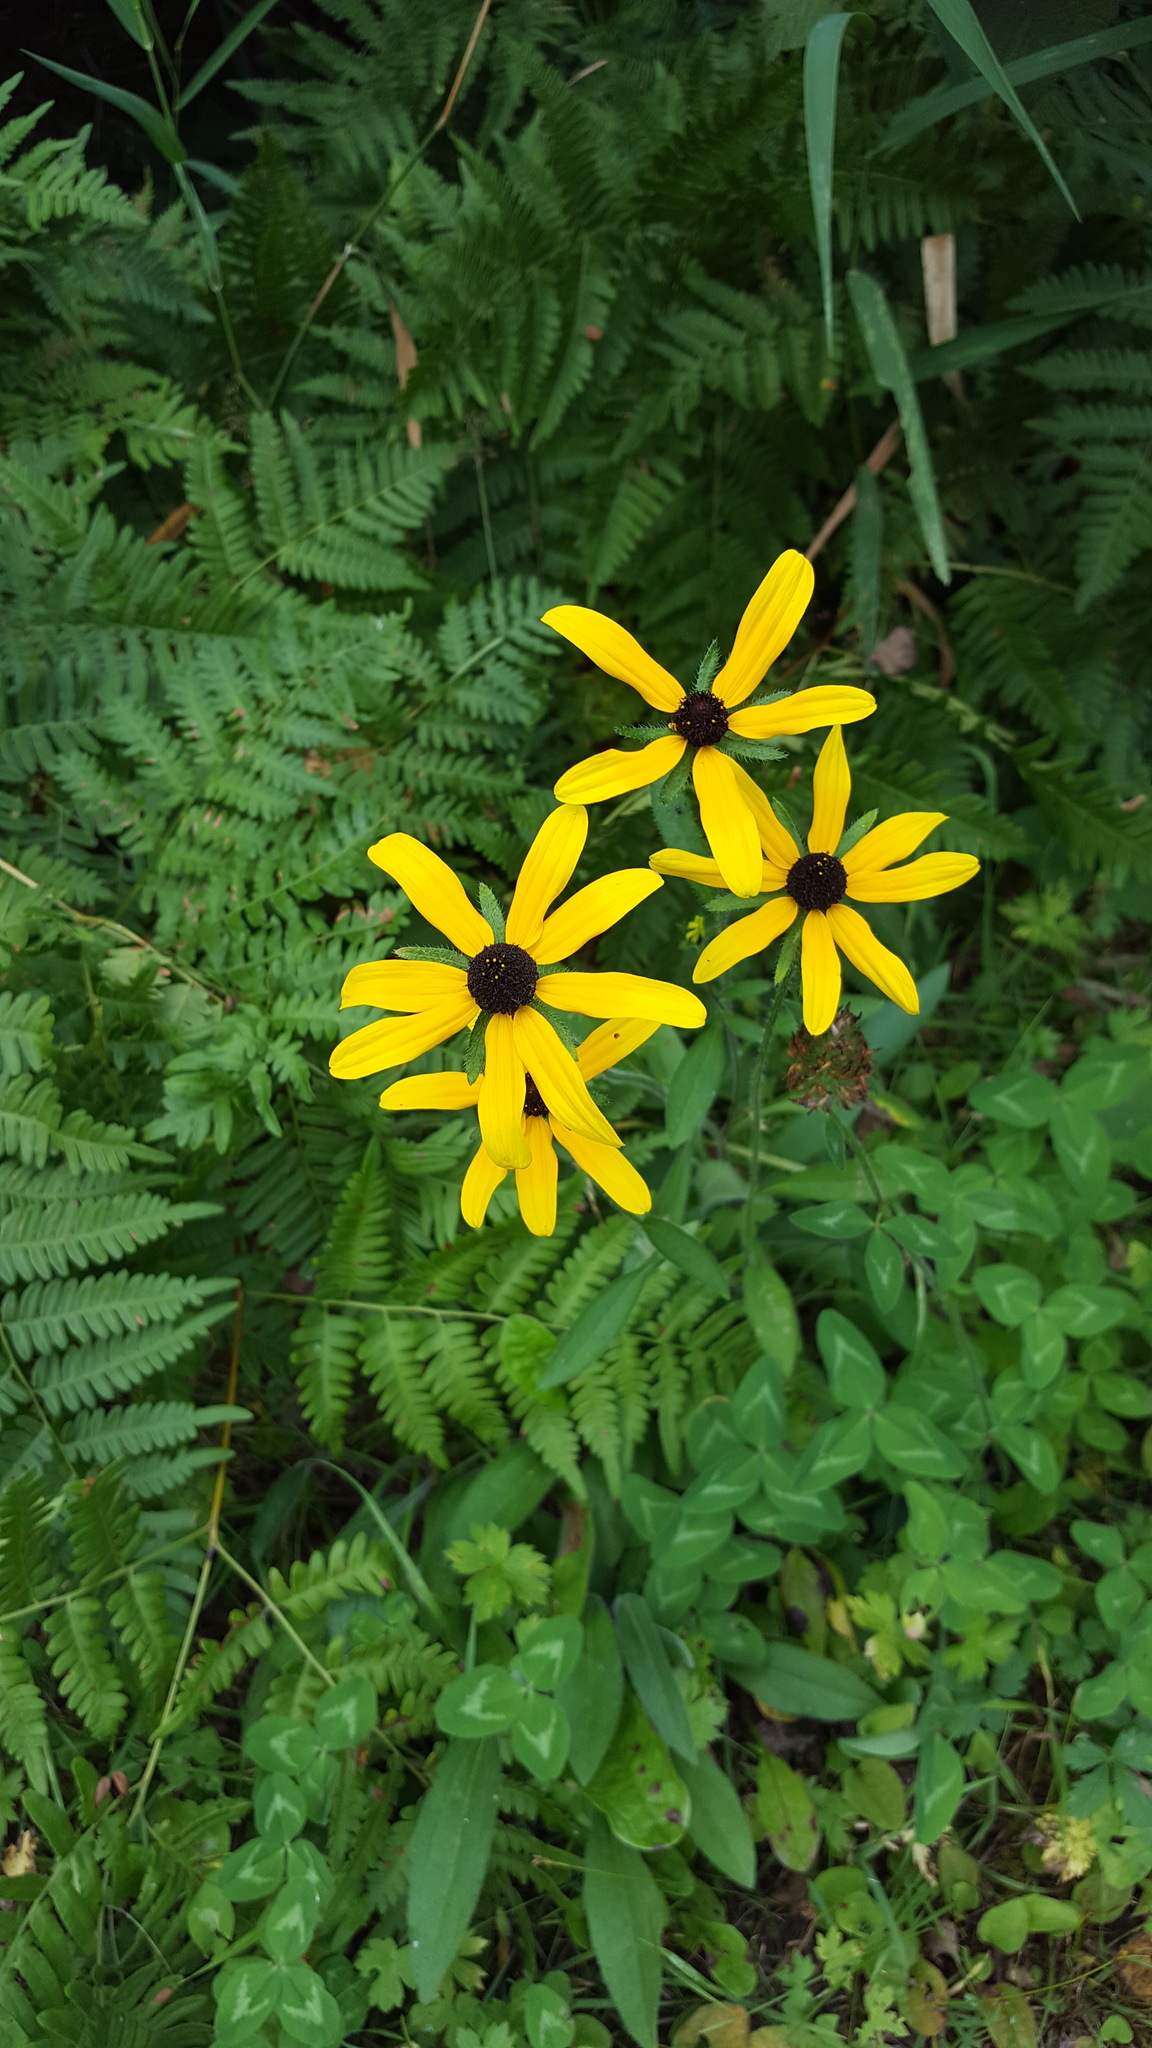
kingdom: Plantae
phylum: Tracheophyta
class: Magnoliopsida
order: Asterales
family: Asteraceae
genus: Rudbeckia
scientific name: Rudbeckia hirta
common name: Black-eyed-susan
